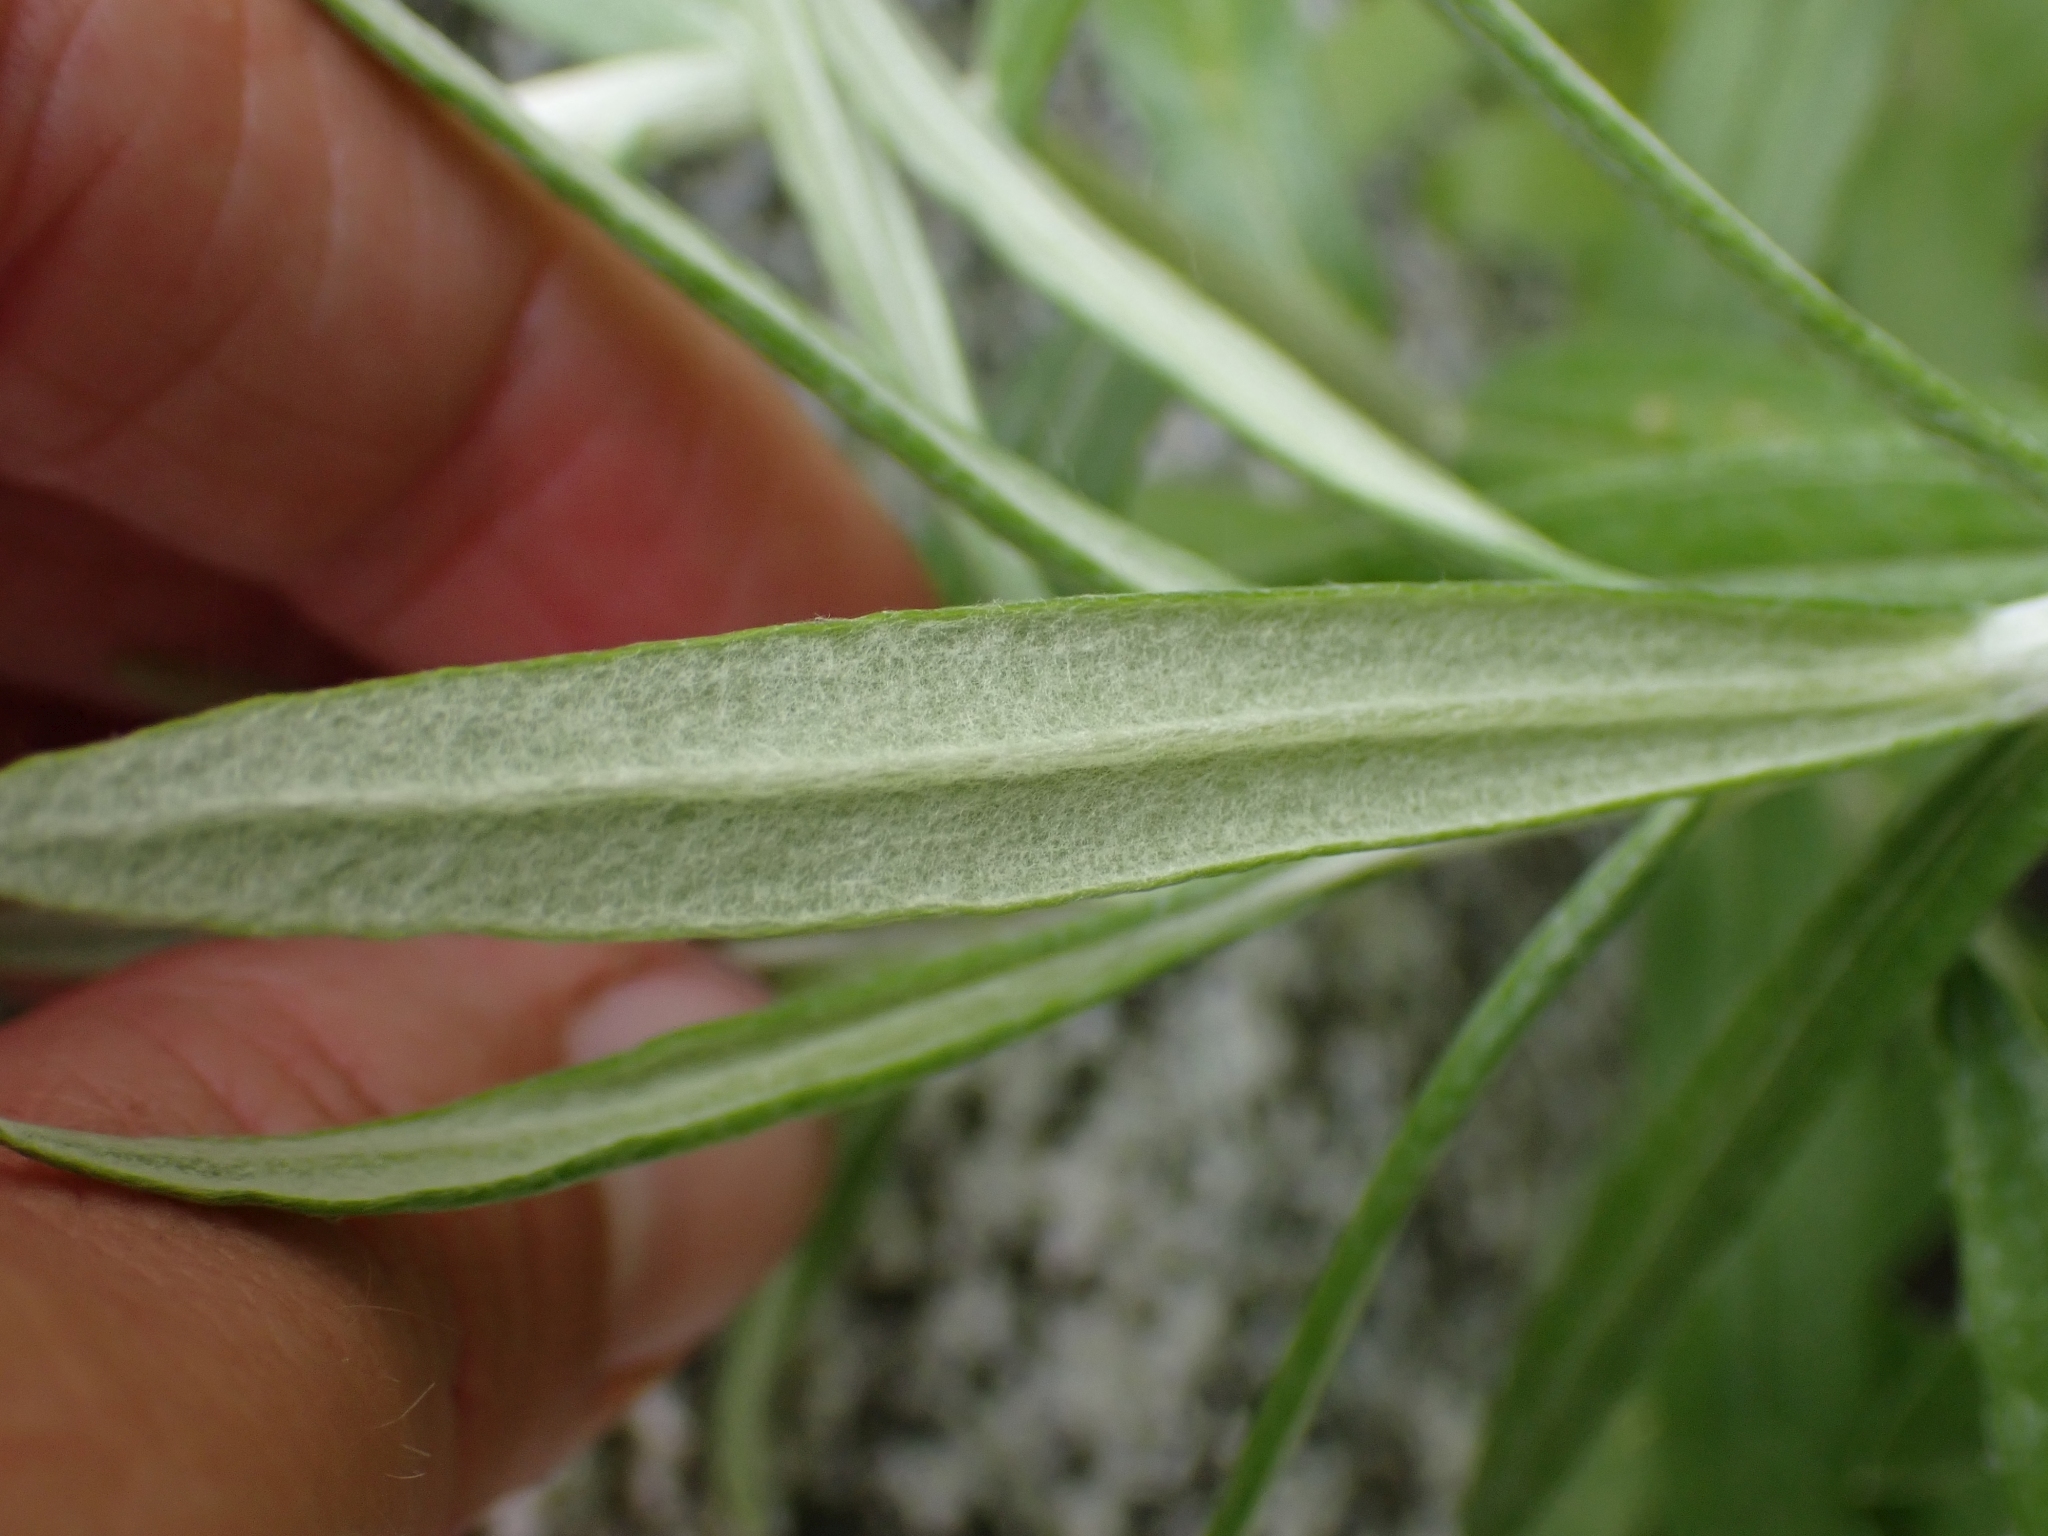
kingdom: Plantae
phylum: Tracheophyta
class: Magnoliopsida
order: Asterales
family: Asteraceae
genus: Anaphalis
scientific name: Anaphalis margaritacea
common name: Pearly everlasting
